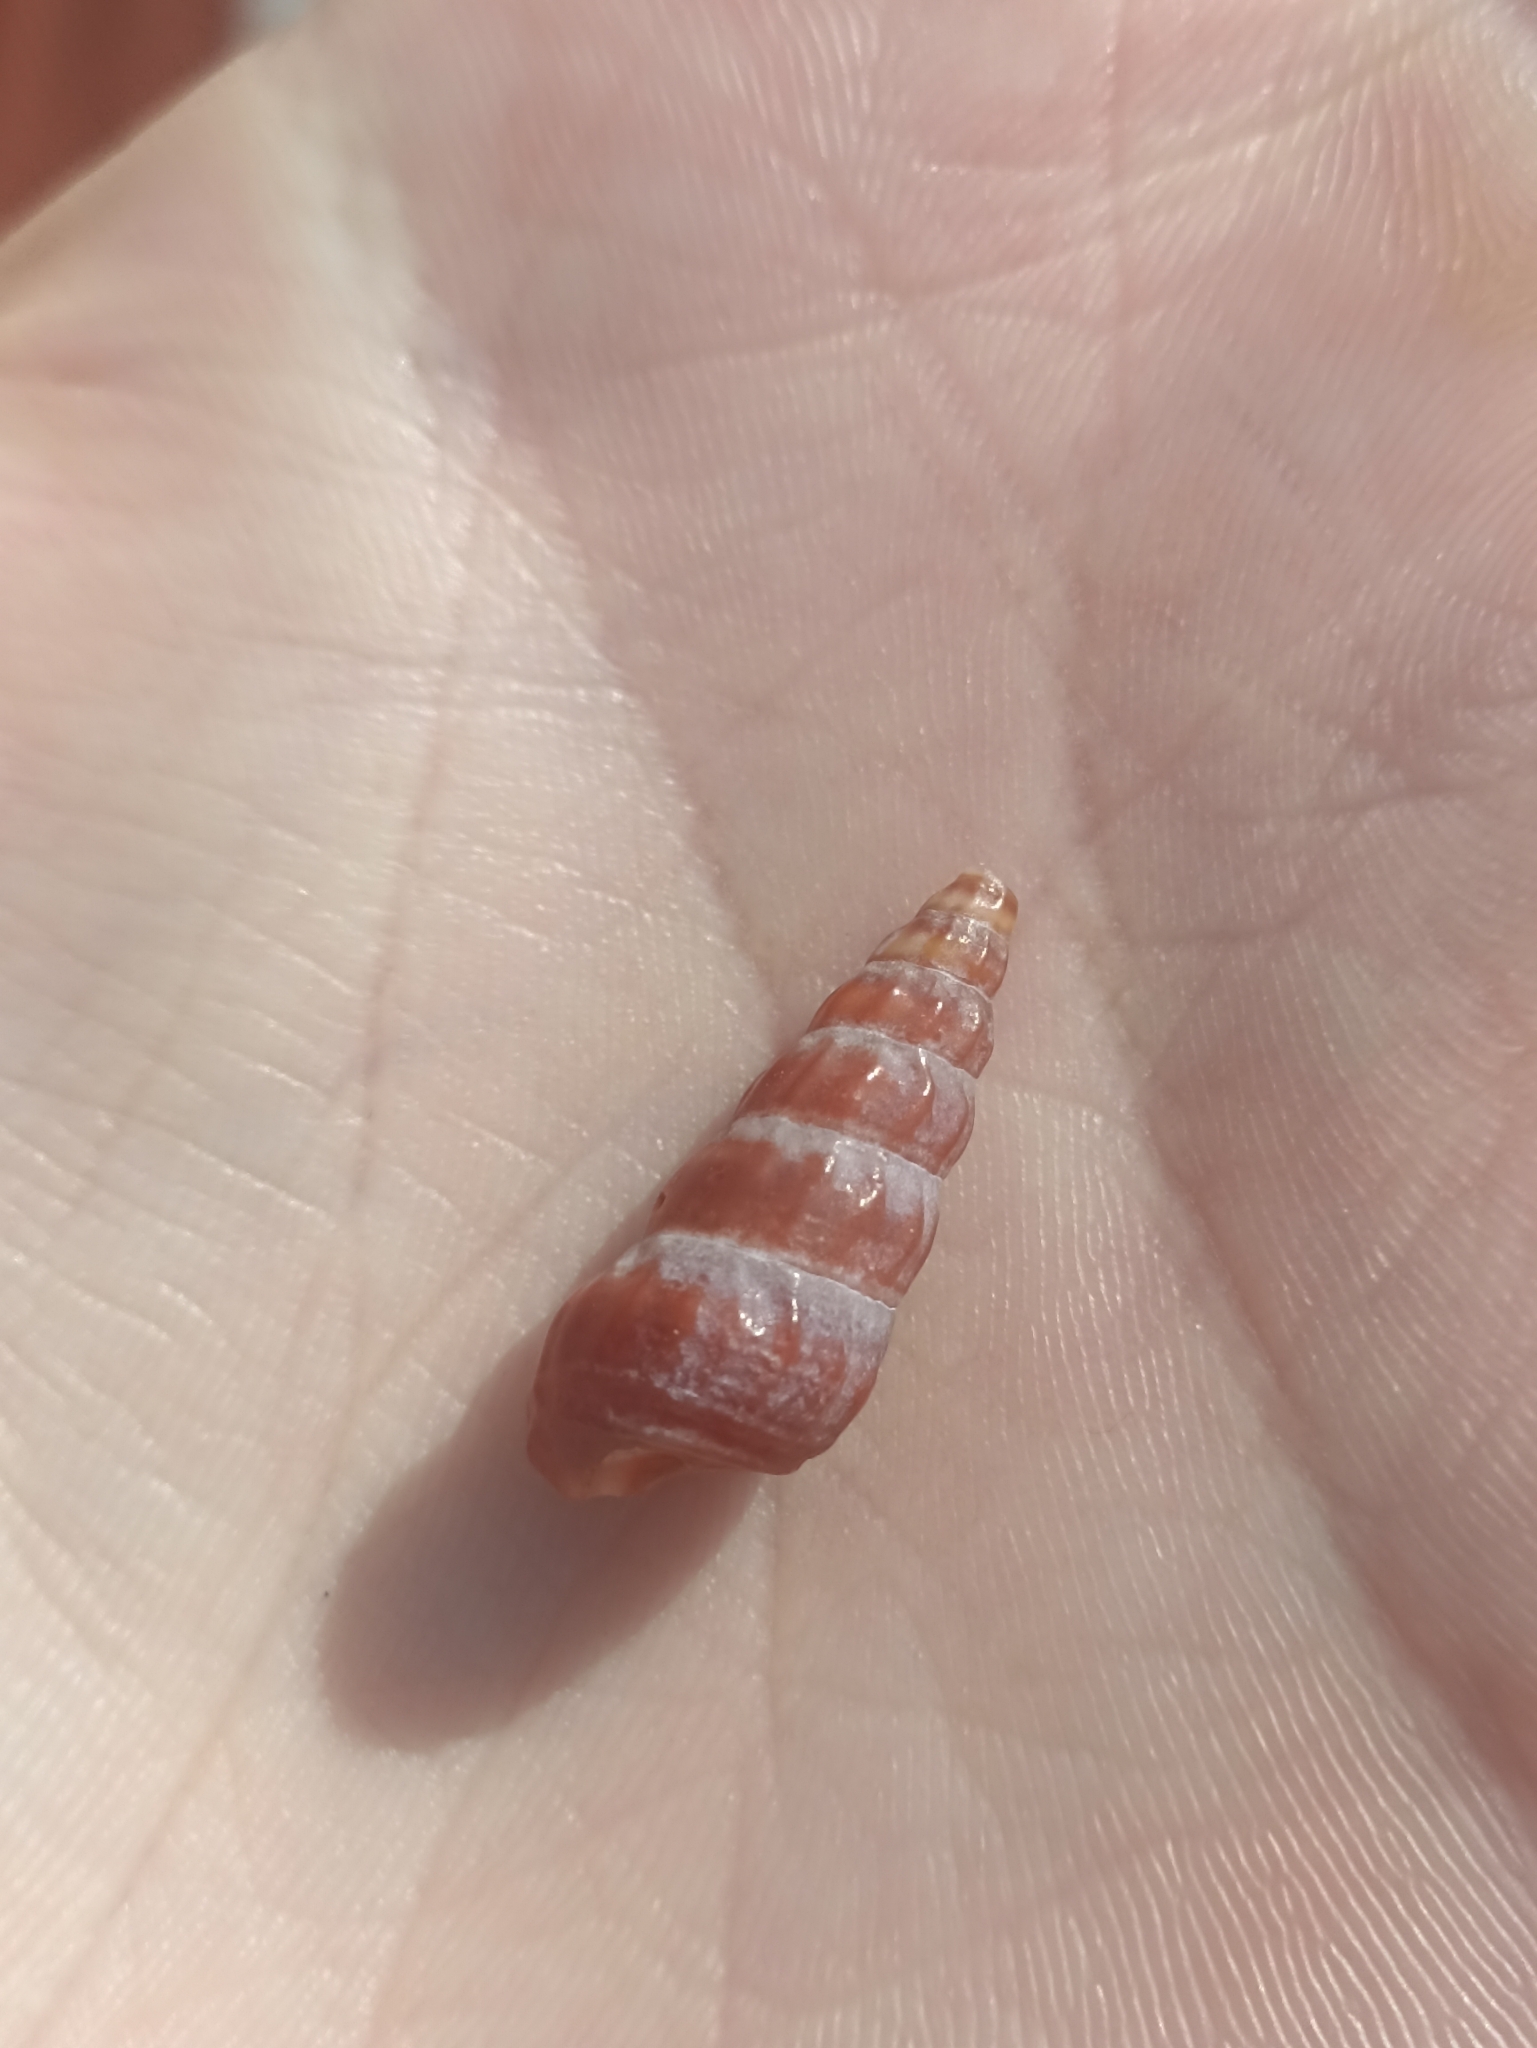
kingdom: Animalia
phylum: Mollusca
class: Gastropoda
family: Batillariidae
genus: Zeacumantus
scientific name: Zeacumantus lutulentus
